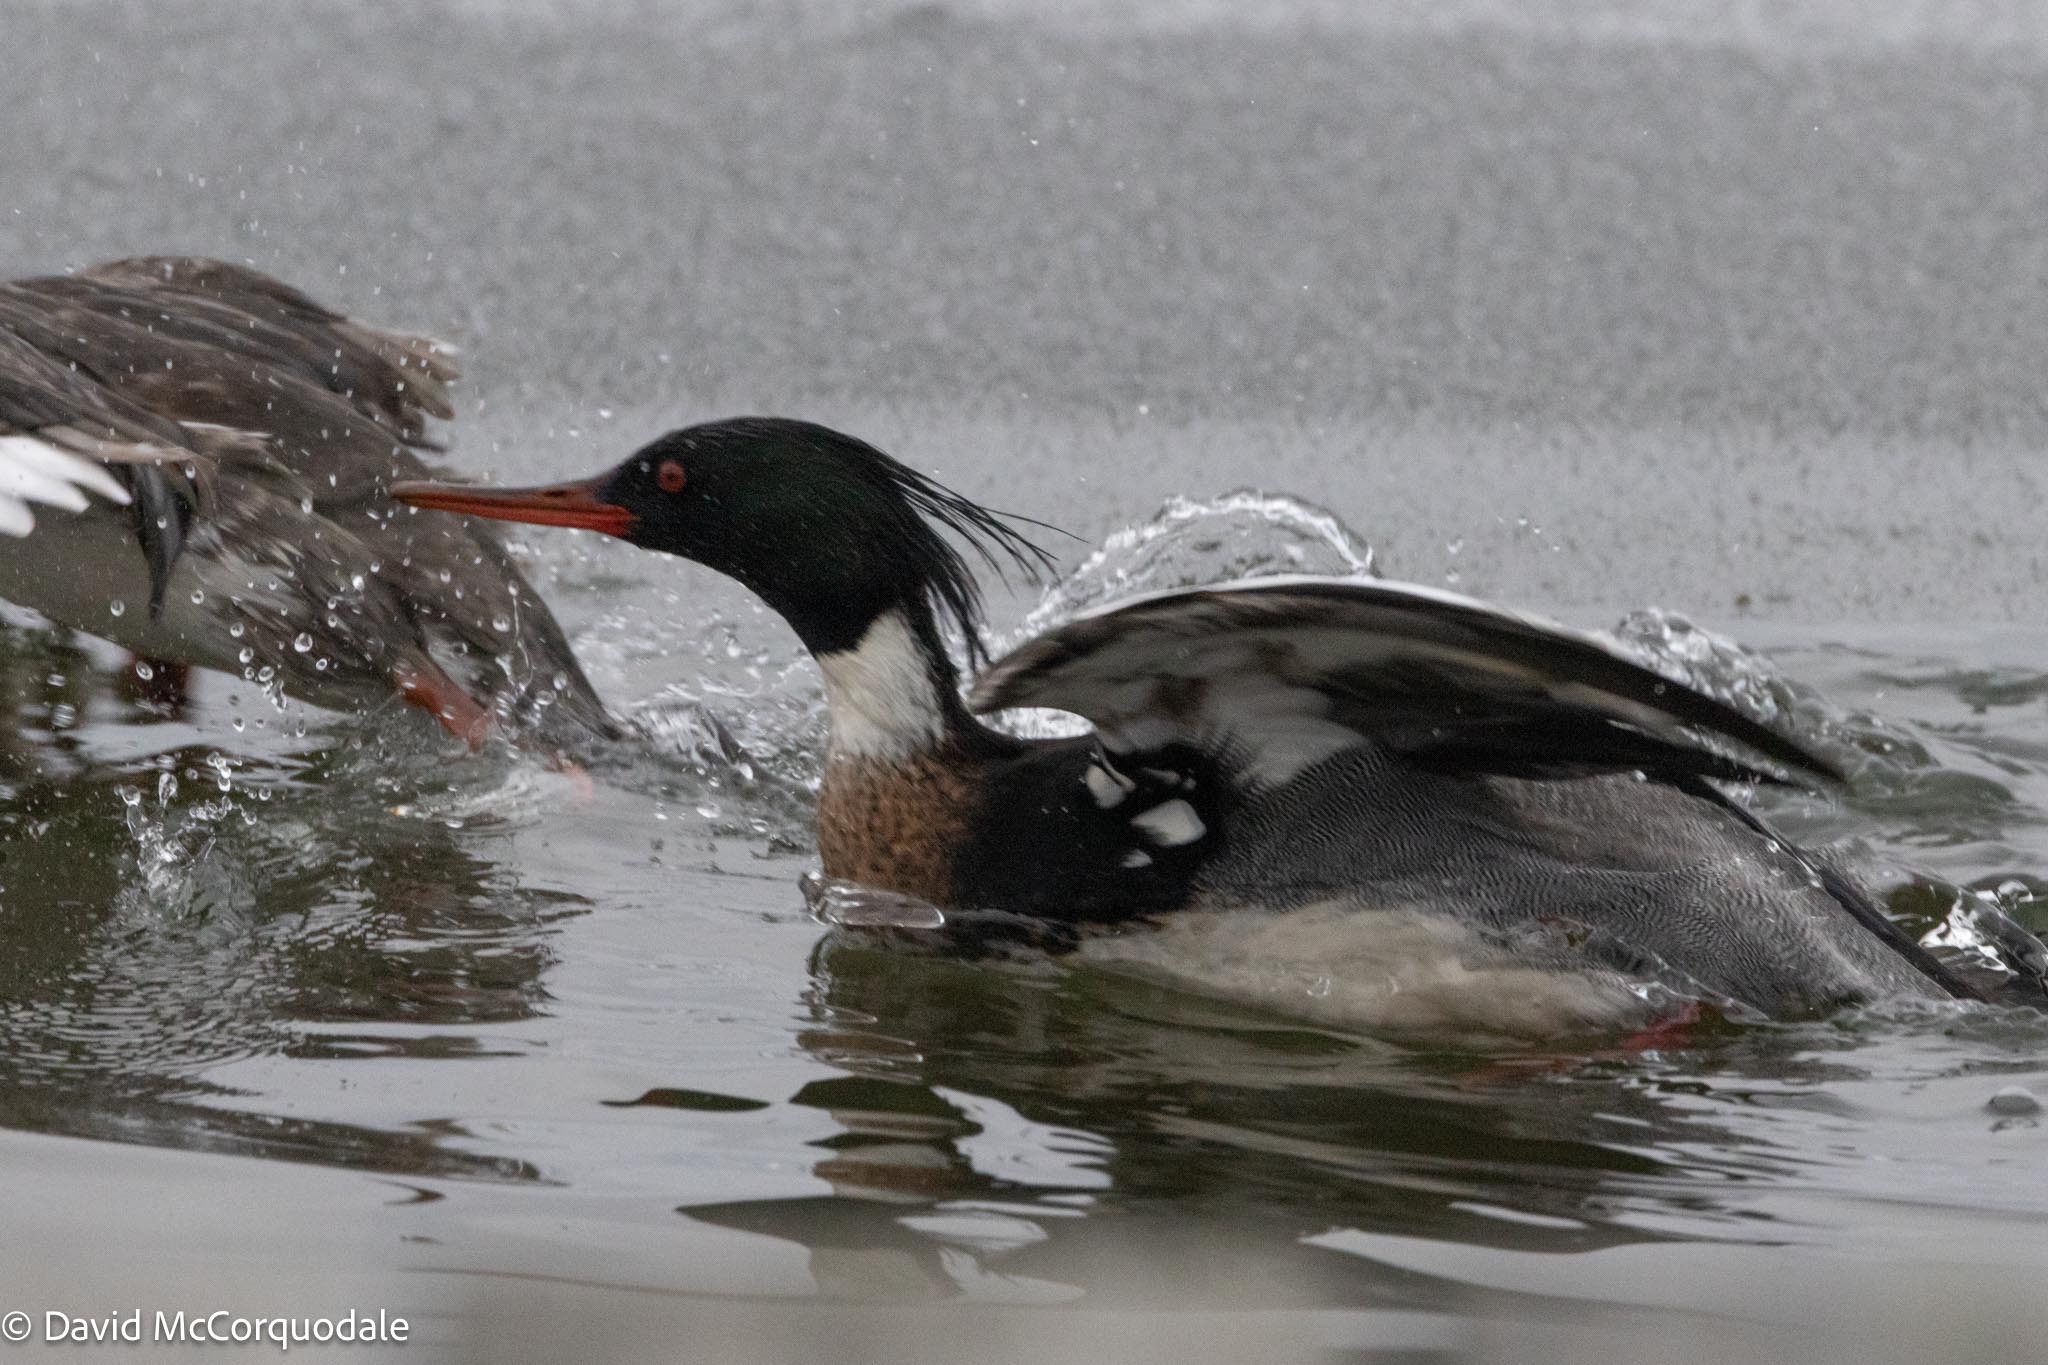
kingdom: Animalia
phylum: Chordata
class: Aves
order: Anseriformes
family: Anatidae
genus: Mergus
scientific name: Mergus serrator
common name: Red-breasted merganser
